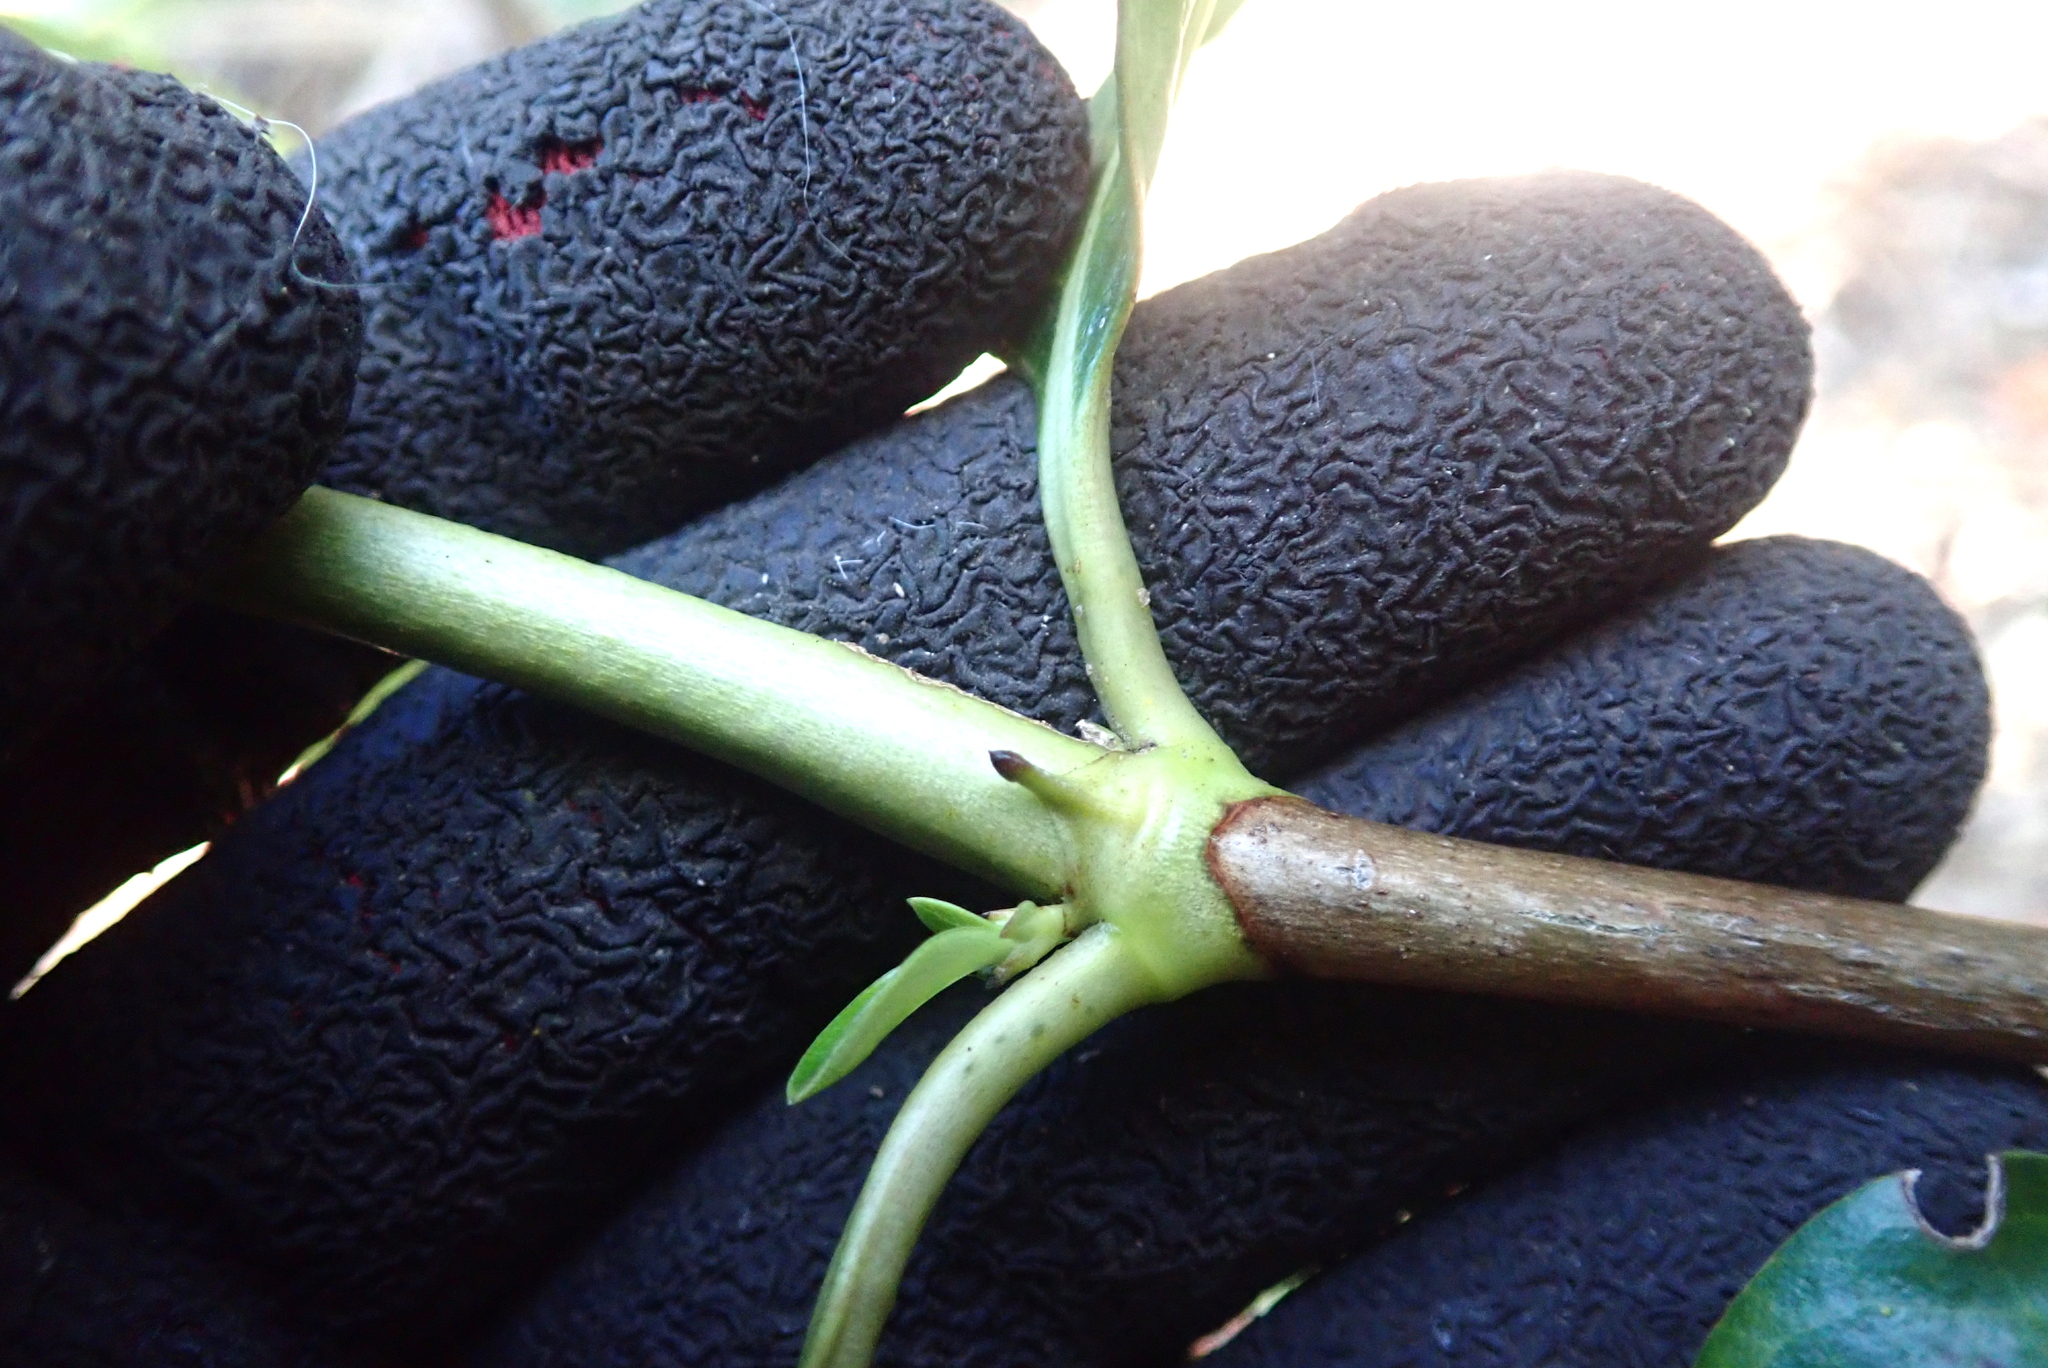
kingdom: Plantae
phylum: Tracheophyta
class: Magnoliopsida
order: Gentianales
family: Rubiaceae
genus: Coprosma
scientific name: Coprosma robusta
